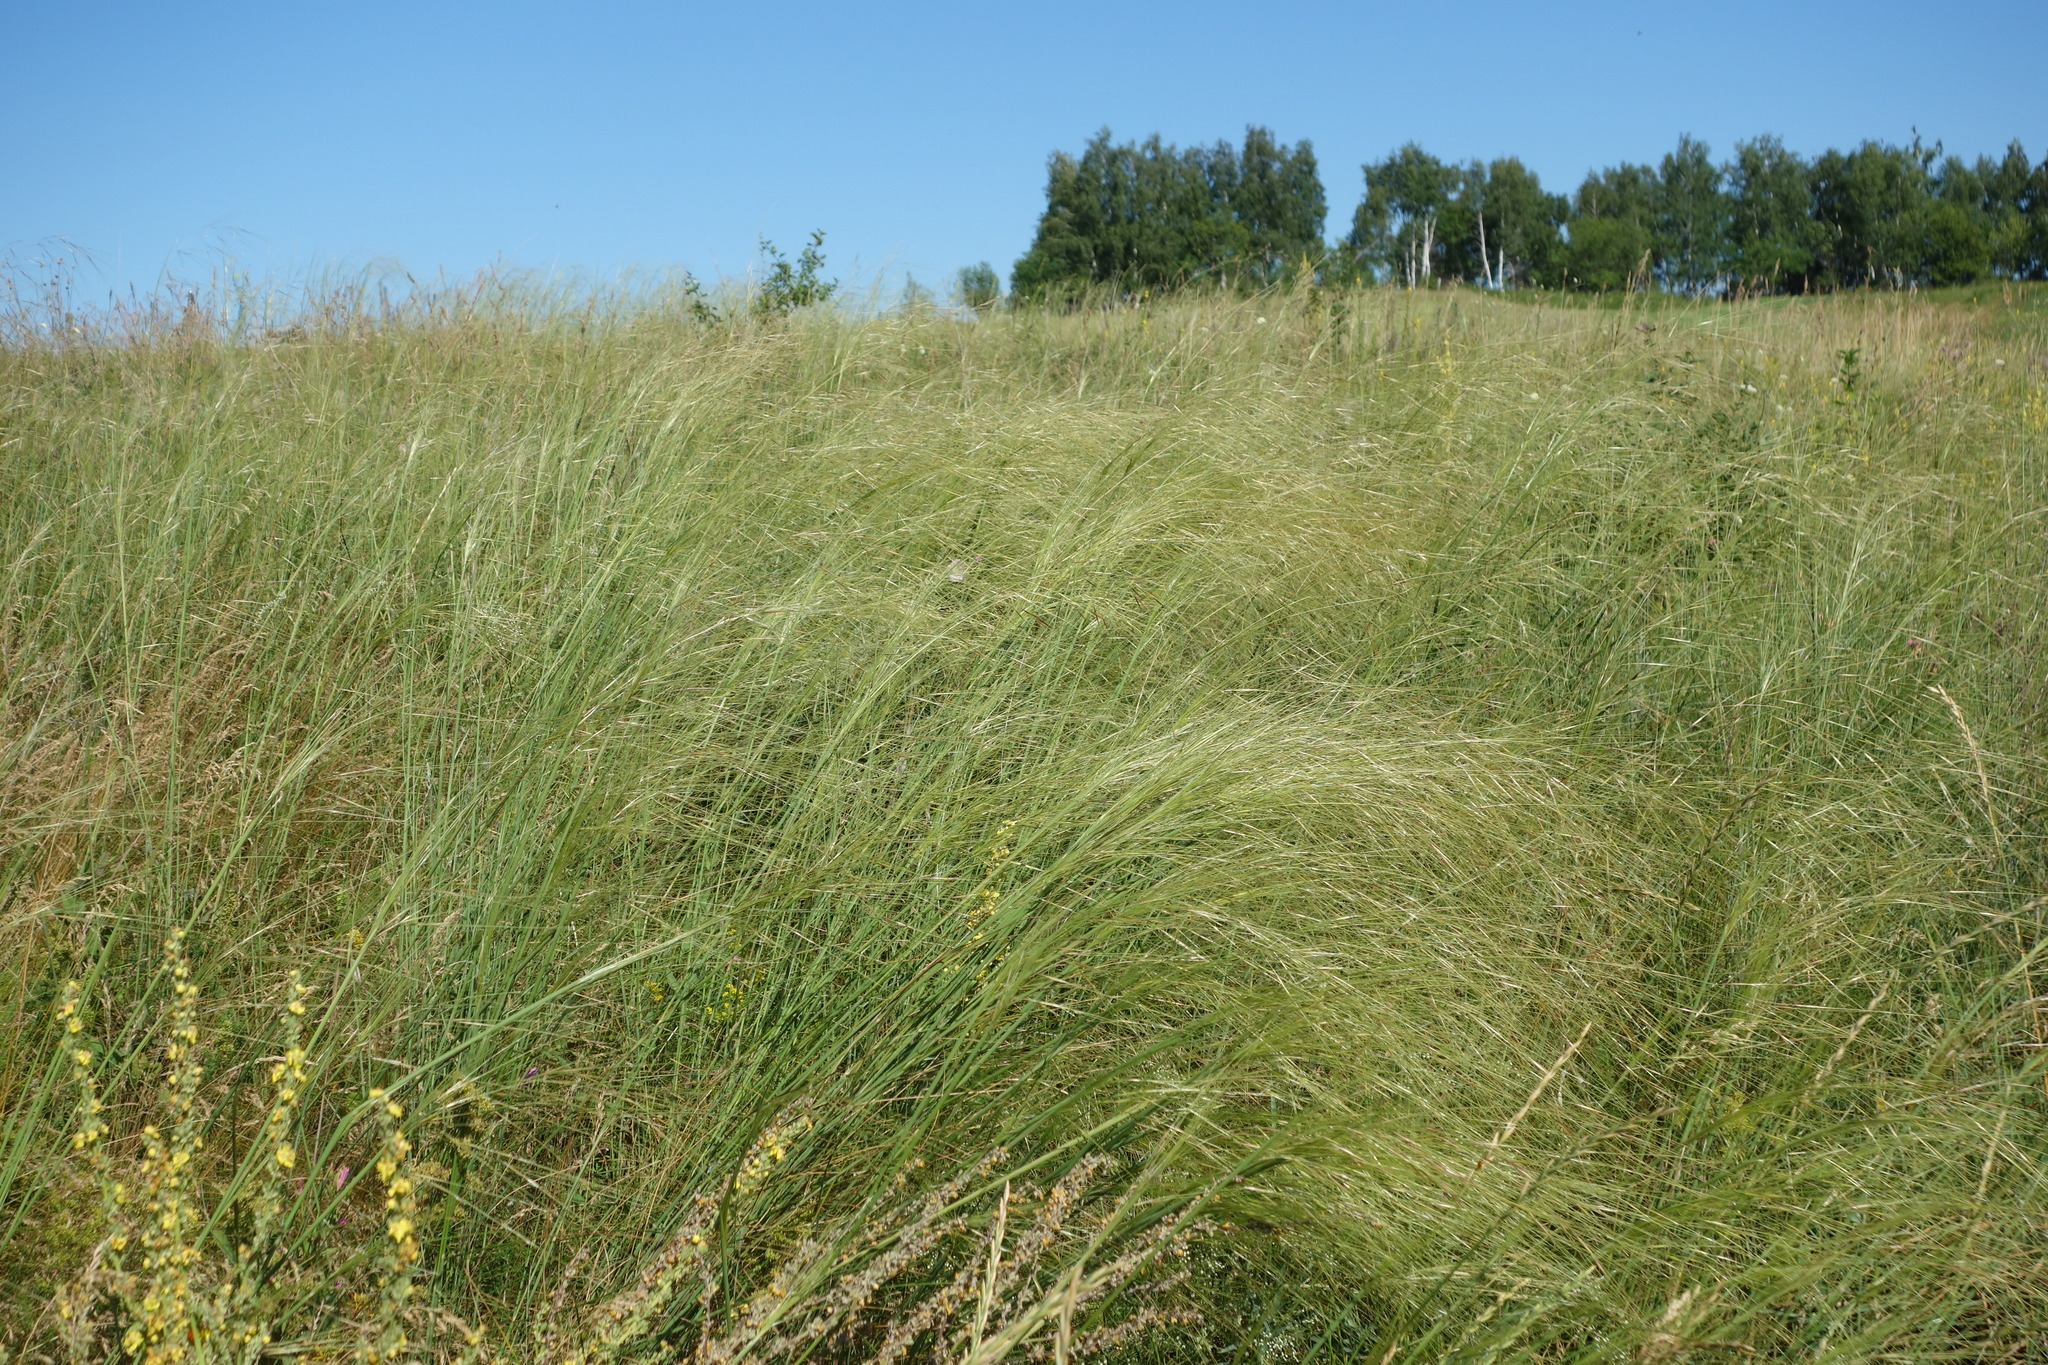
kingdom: Plantae
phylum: Tracheophyta
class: Liliopsida
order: Poales
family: Poaceae
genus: Stipa
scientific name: Stipa capillata
